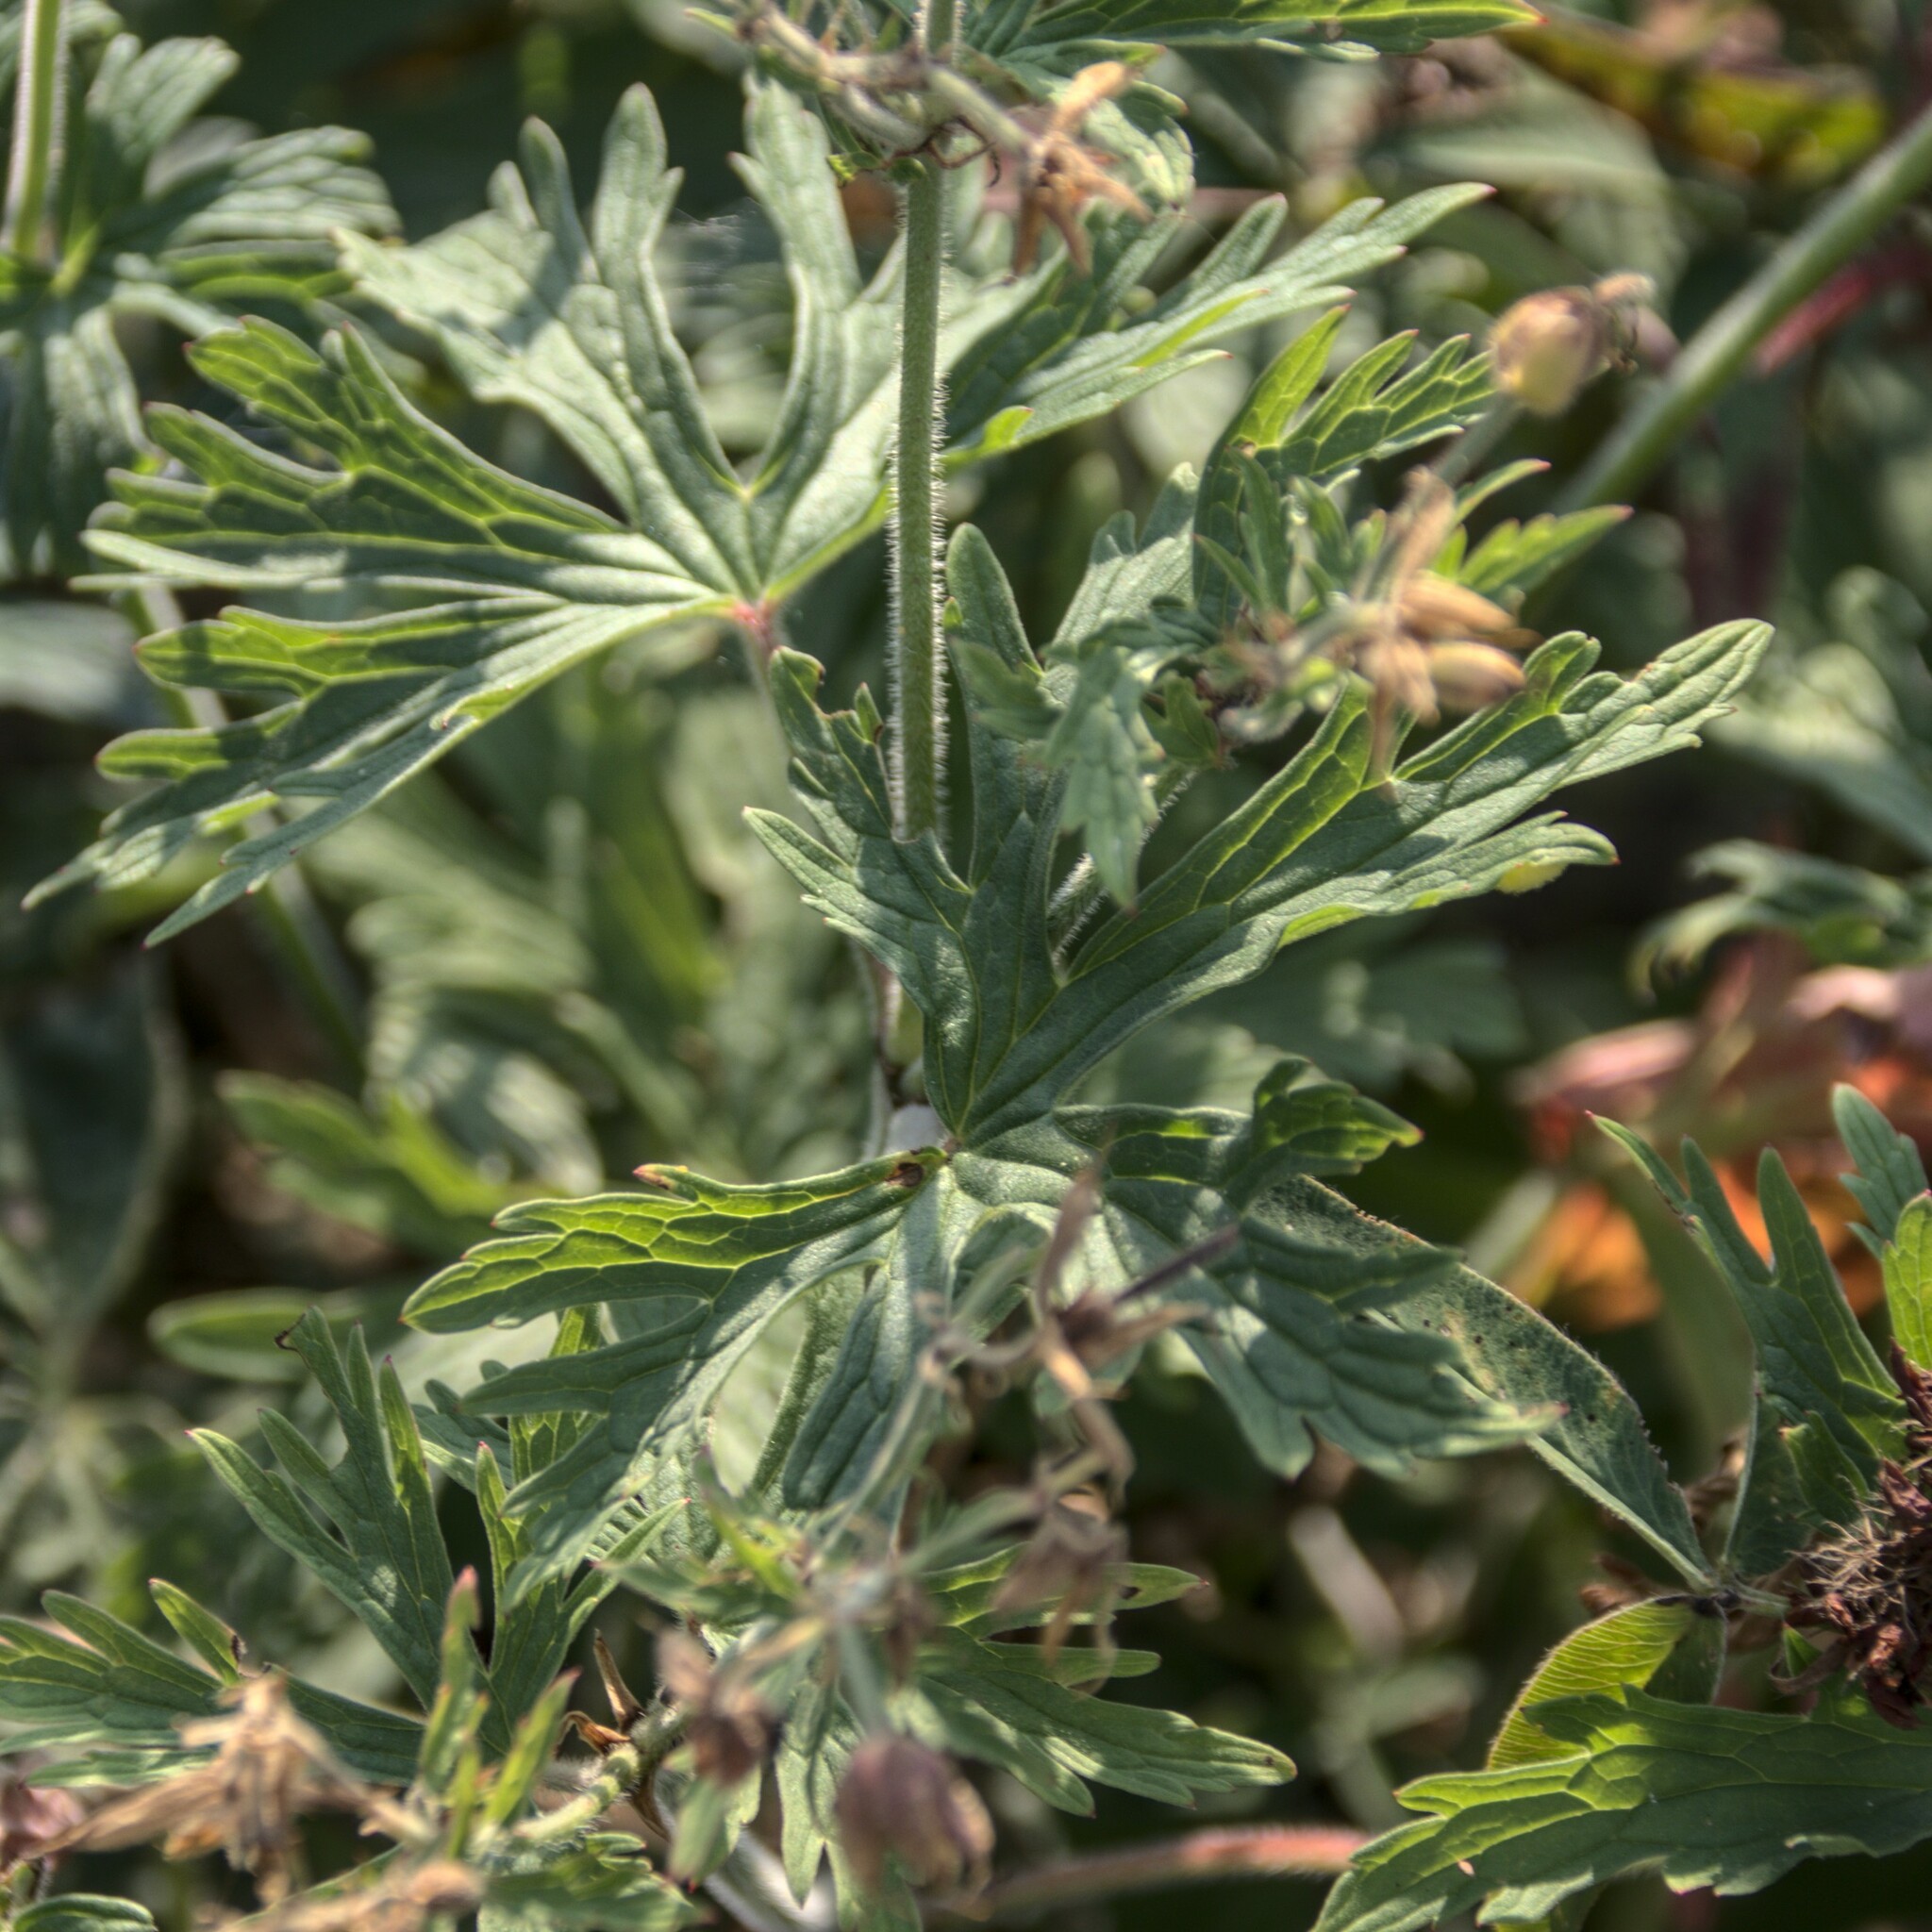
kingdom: Plantae
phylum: Tracheophyta
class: Magnoliopsida
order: Geraniales
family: Geraniaceae
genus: Geranium
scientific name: Geranium pratense
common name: Meadow crane's-bill
